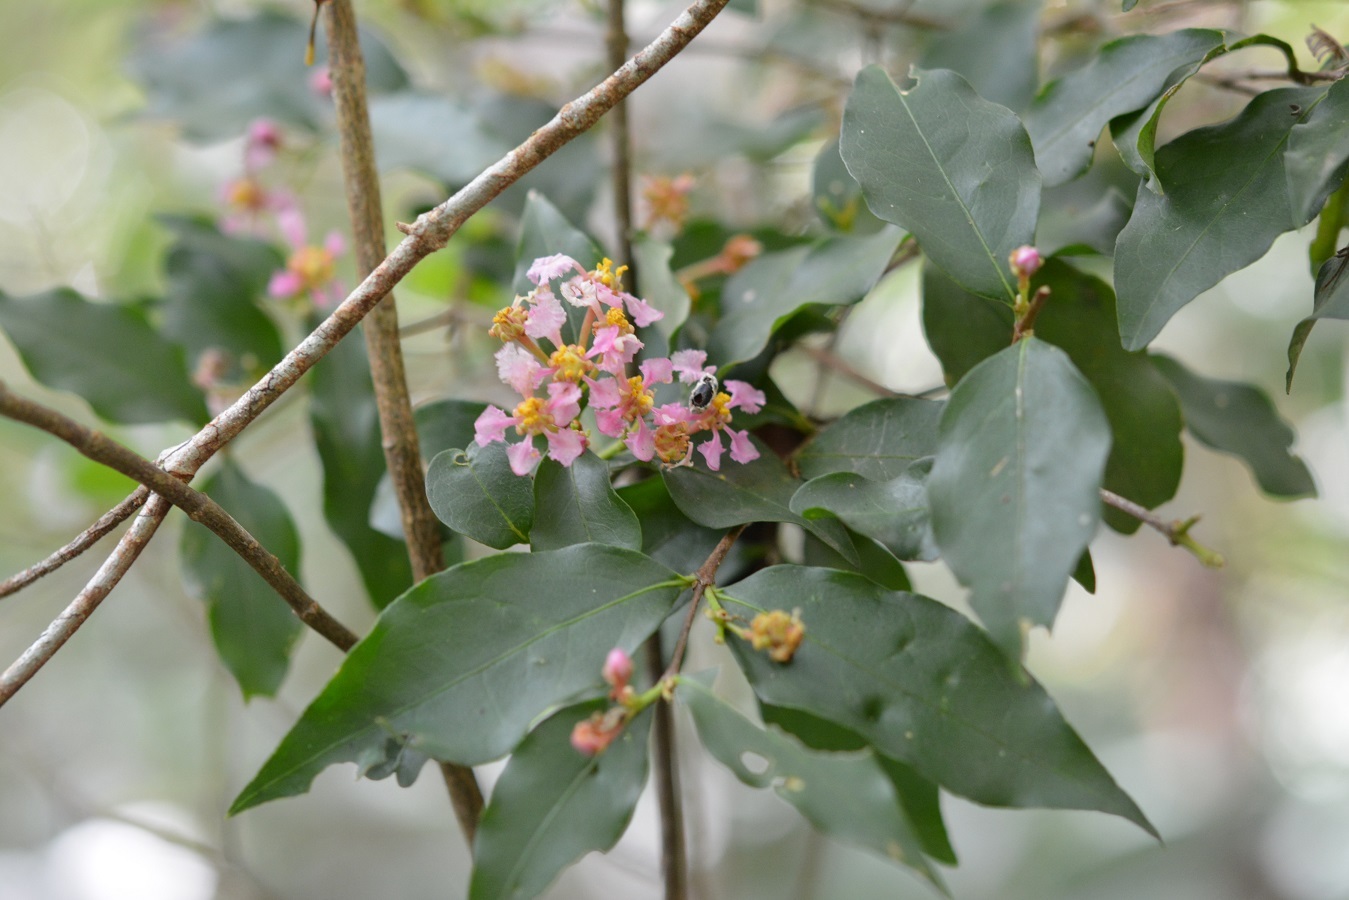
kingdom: Plantae
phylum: Tracheophyta
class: Magnoliopsida
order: Malpighiales
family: Malpighiaceae
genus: Malpighia
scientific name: Malpighia glabra
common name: Barbados cherry
